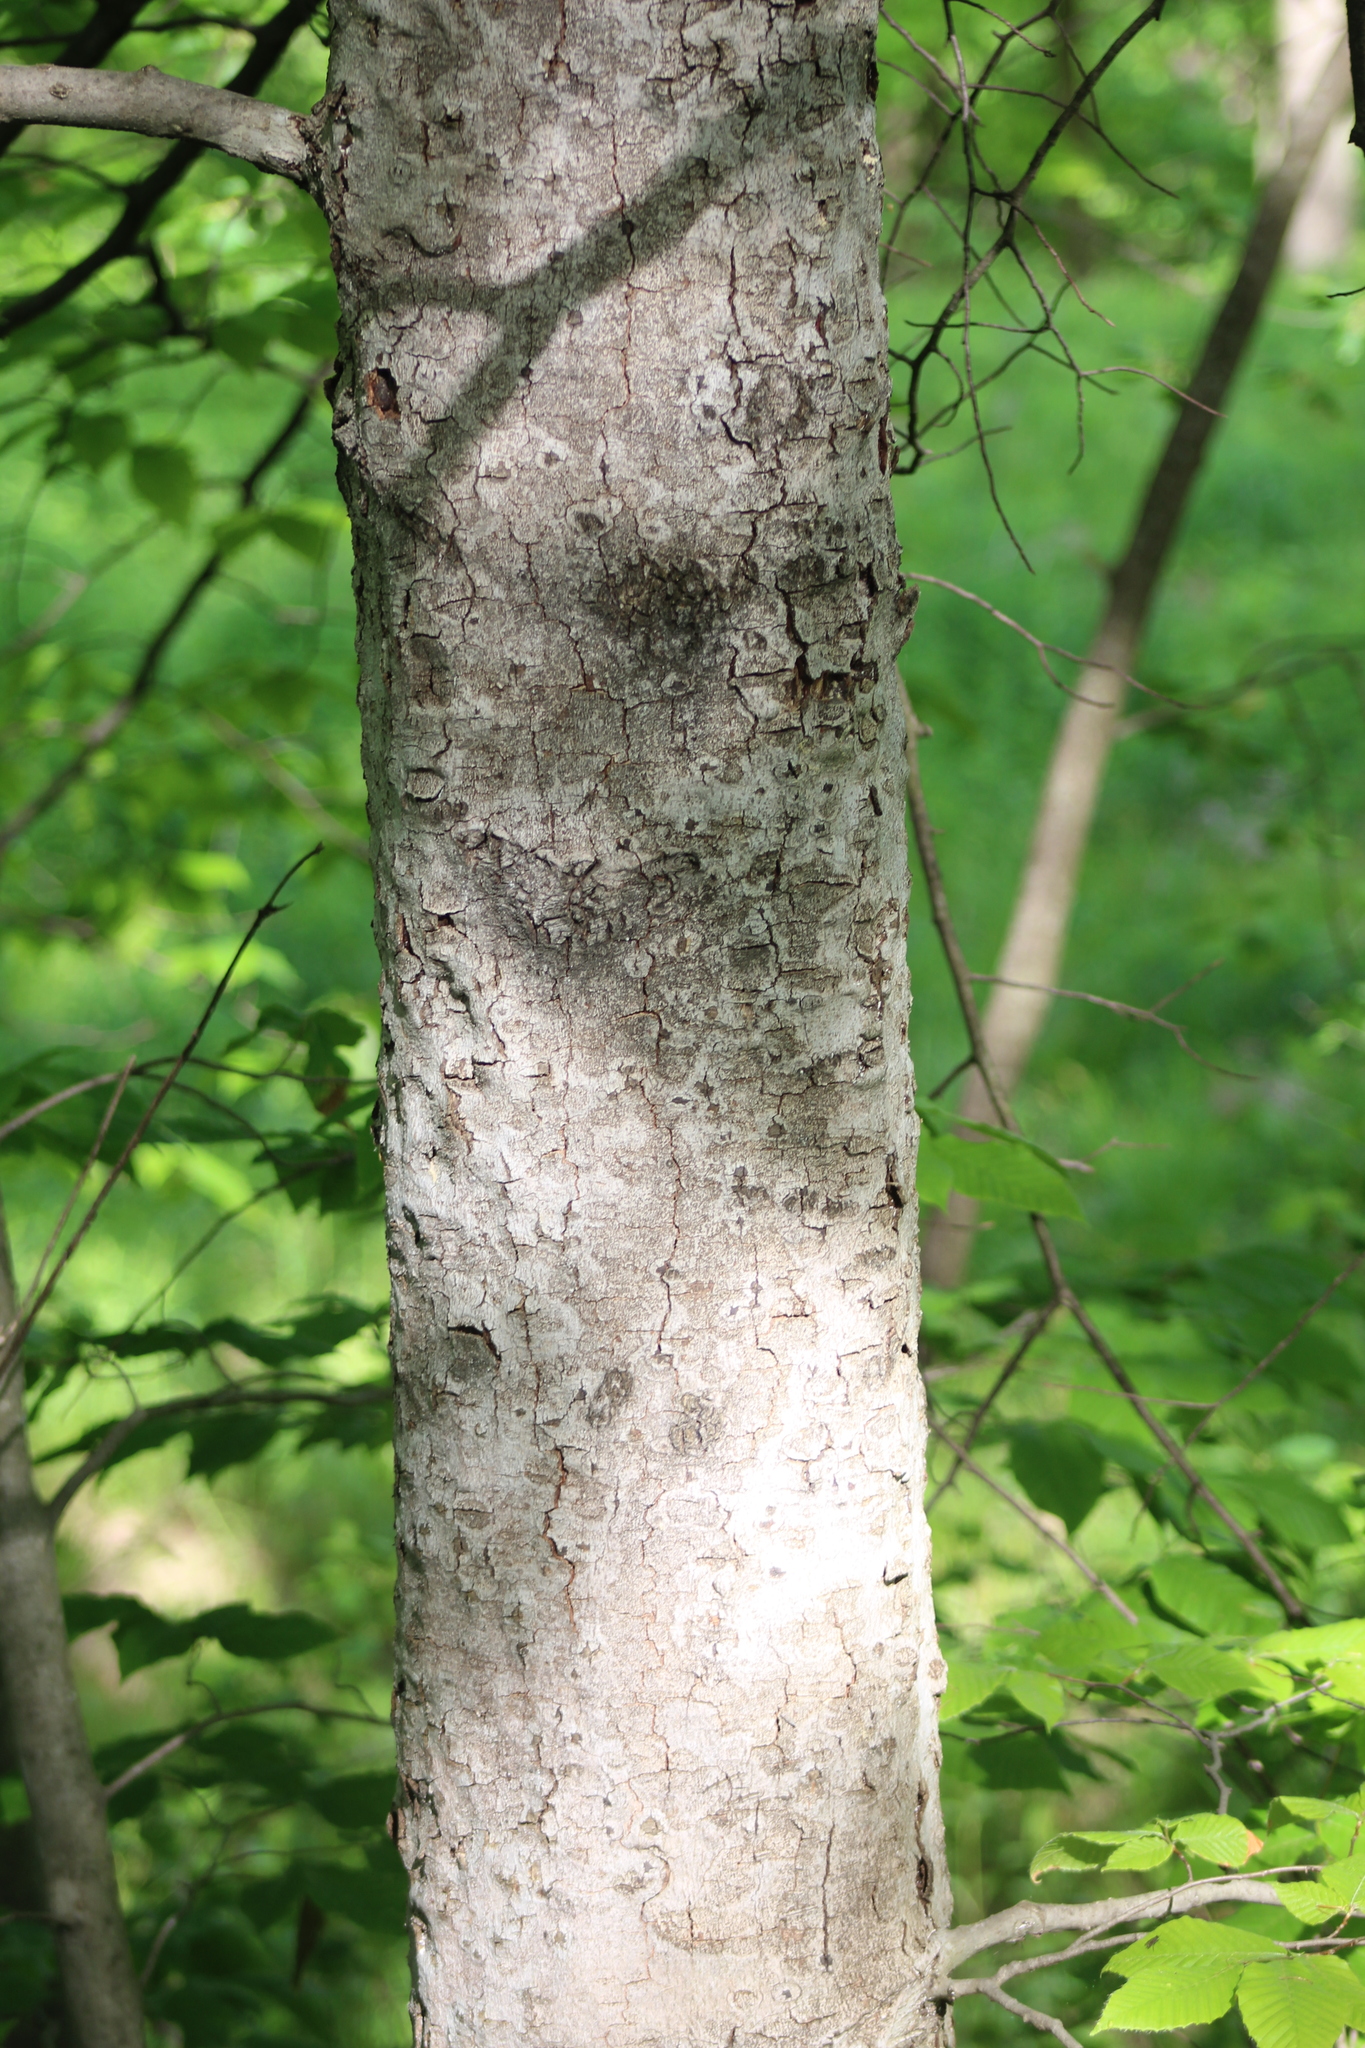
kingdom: Plantae
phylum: Tracheophyta
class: Magnoliopsida
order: Fagales
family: Fagaceae
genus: Fagus
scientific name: Fagus grandifolia
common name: American beech
